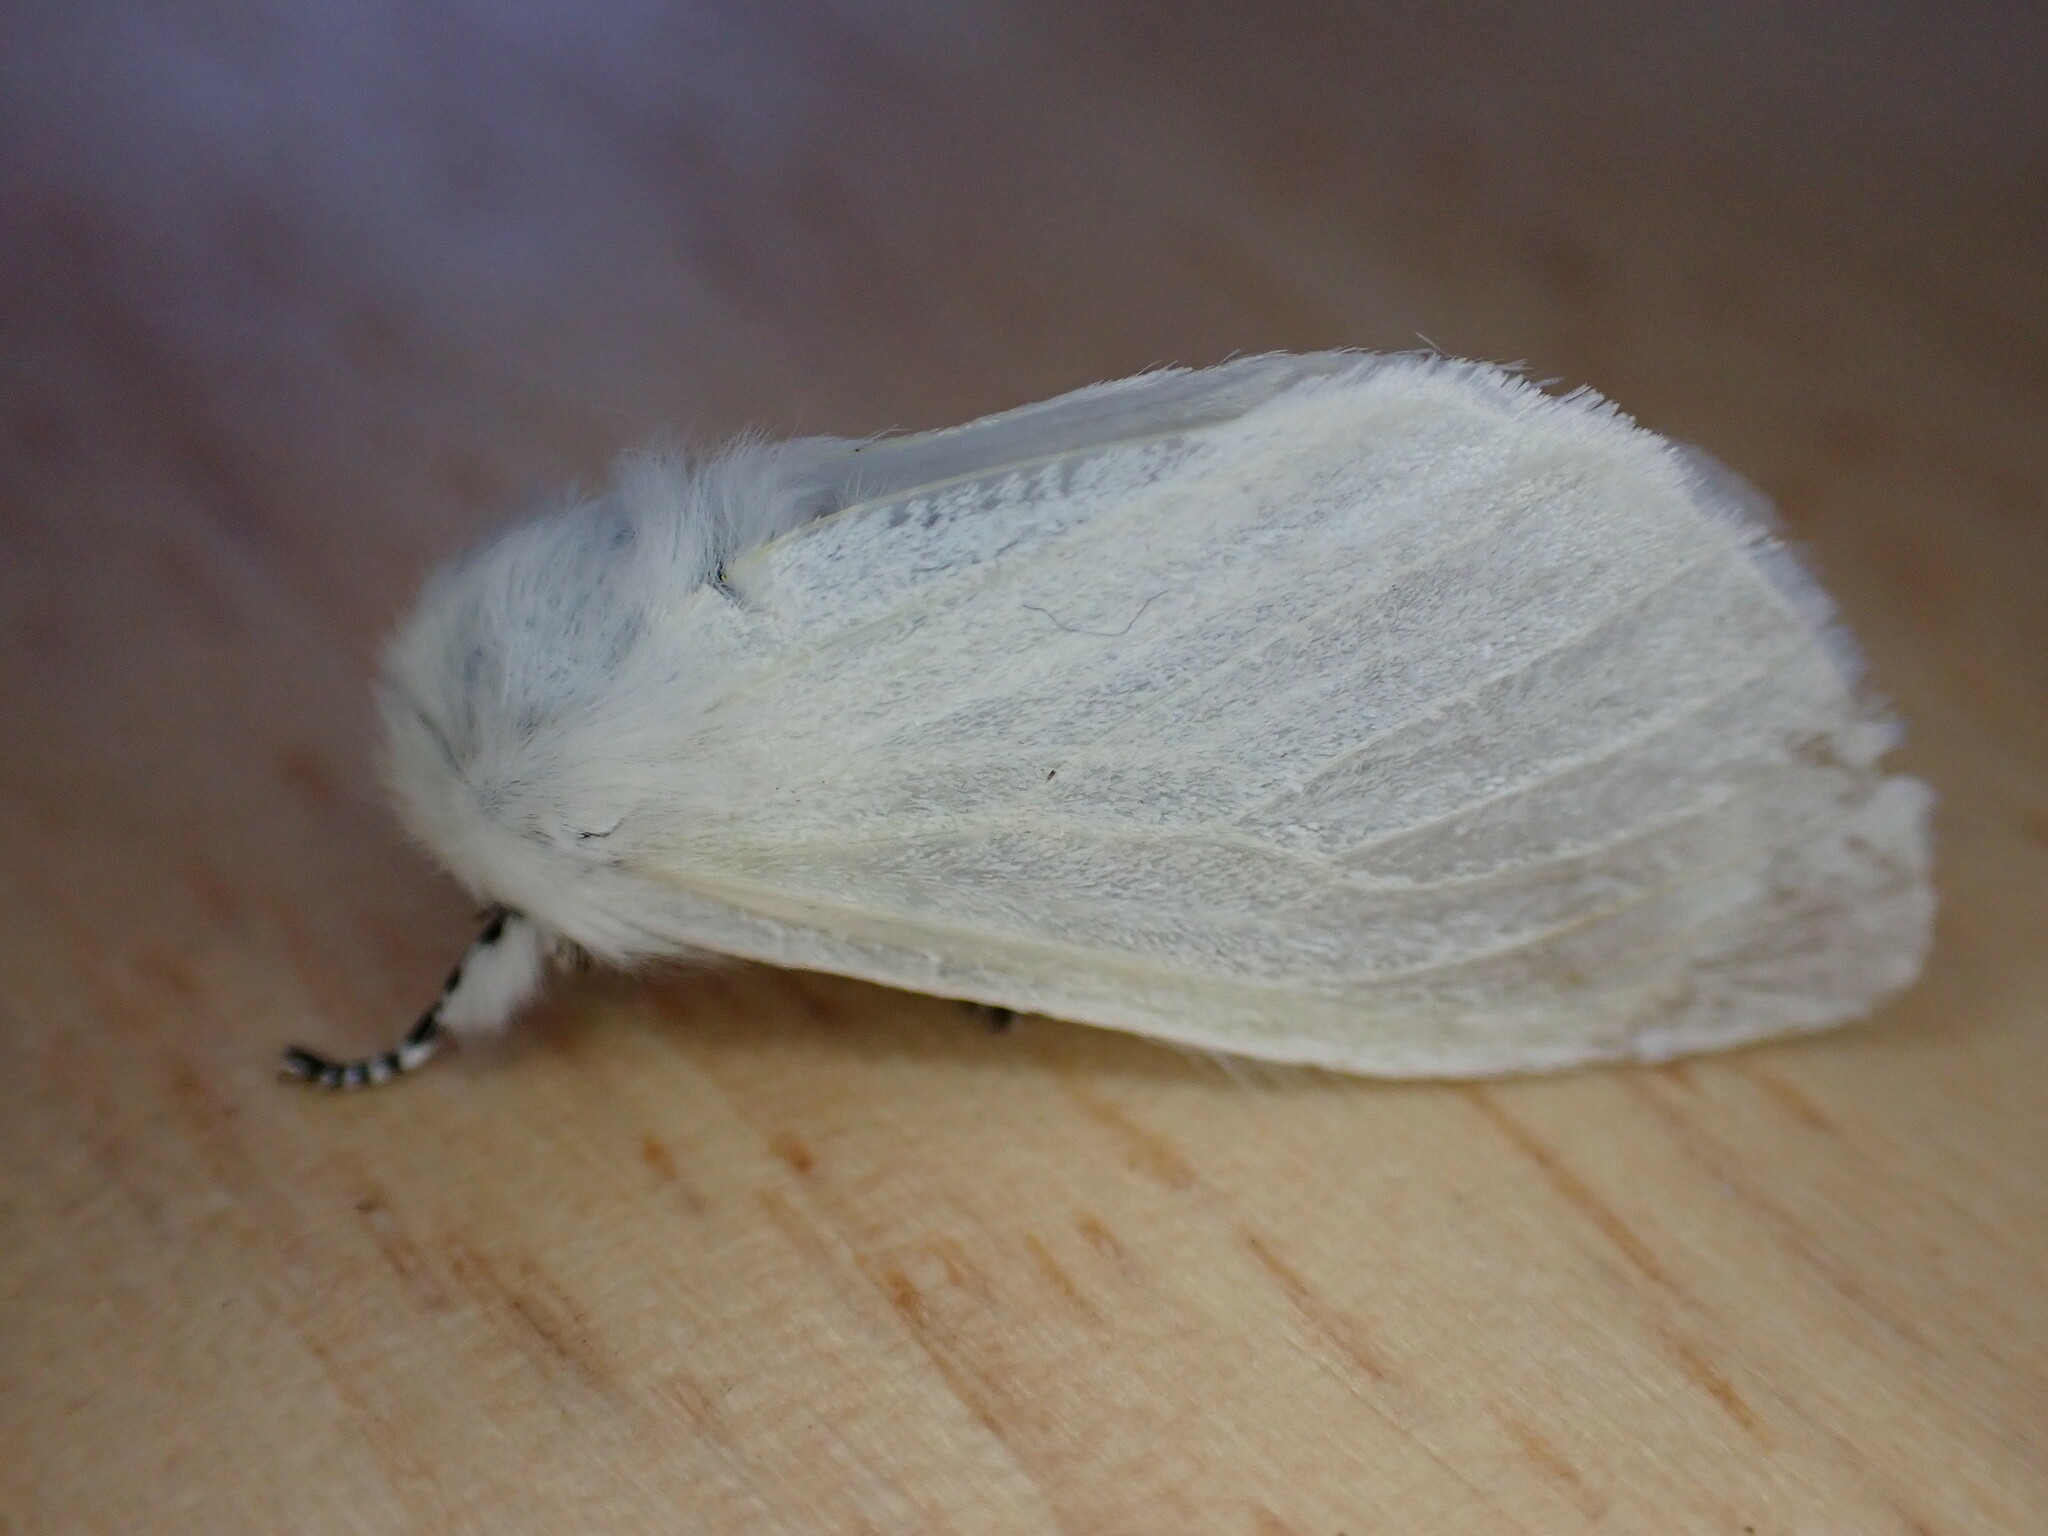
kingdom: Animalia
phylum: Arthropoda
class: Insecta
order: Lepidoptera
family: Erebidae
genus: Leucoma
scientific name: Leucoma salicis
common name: White satin moth
